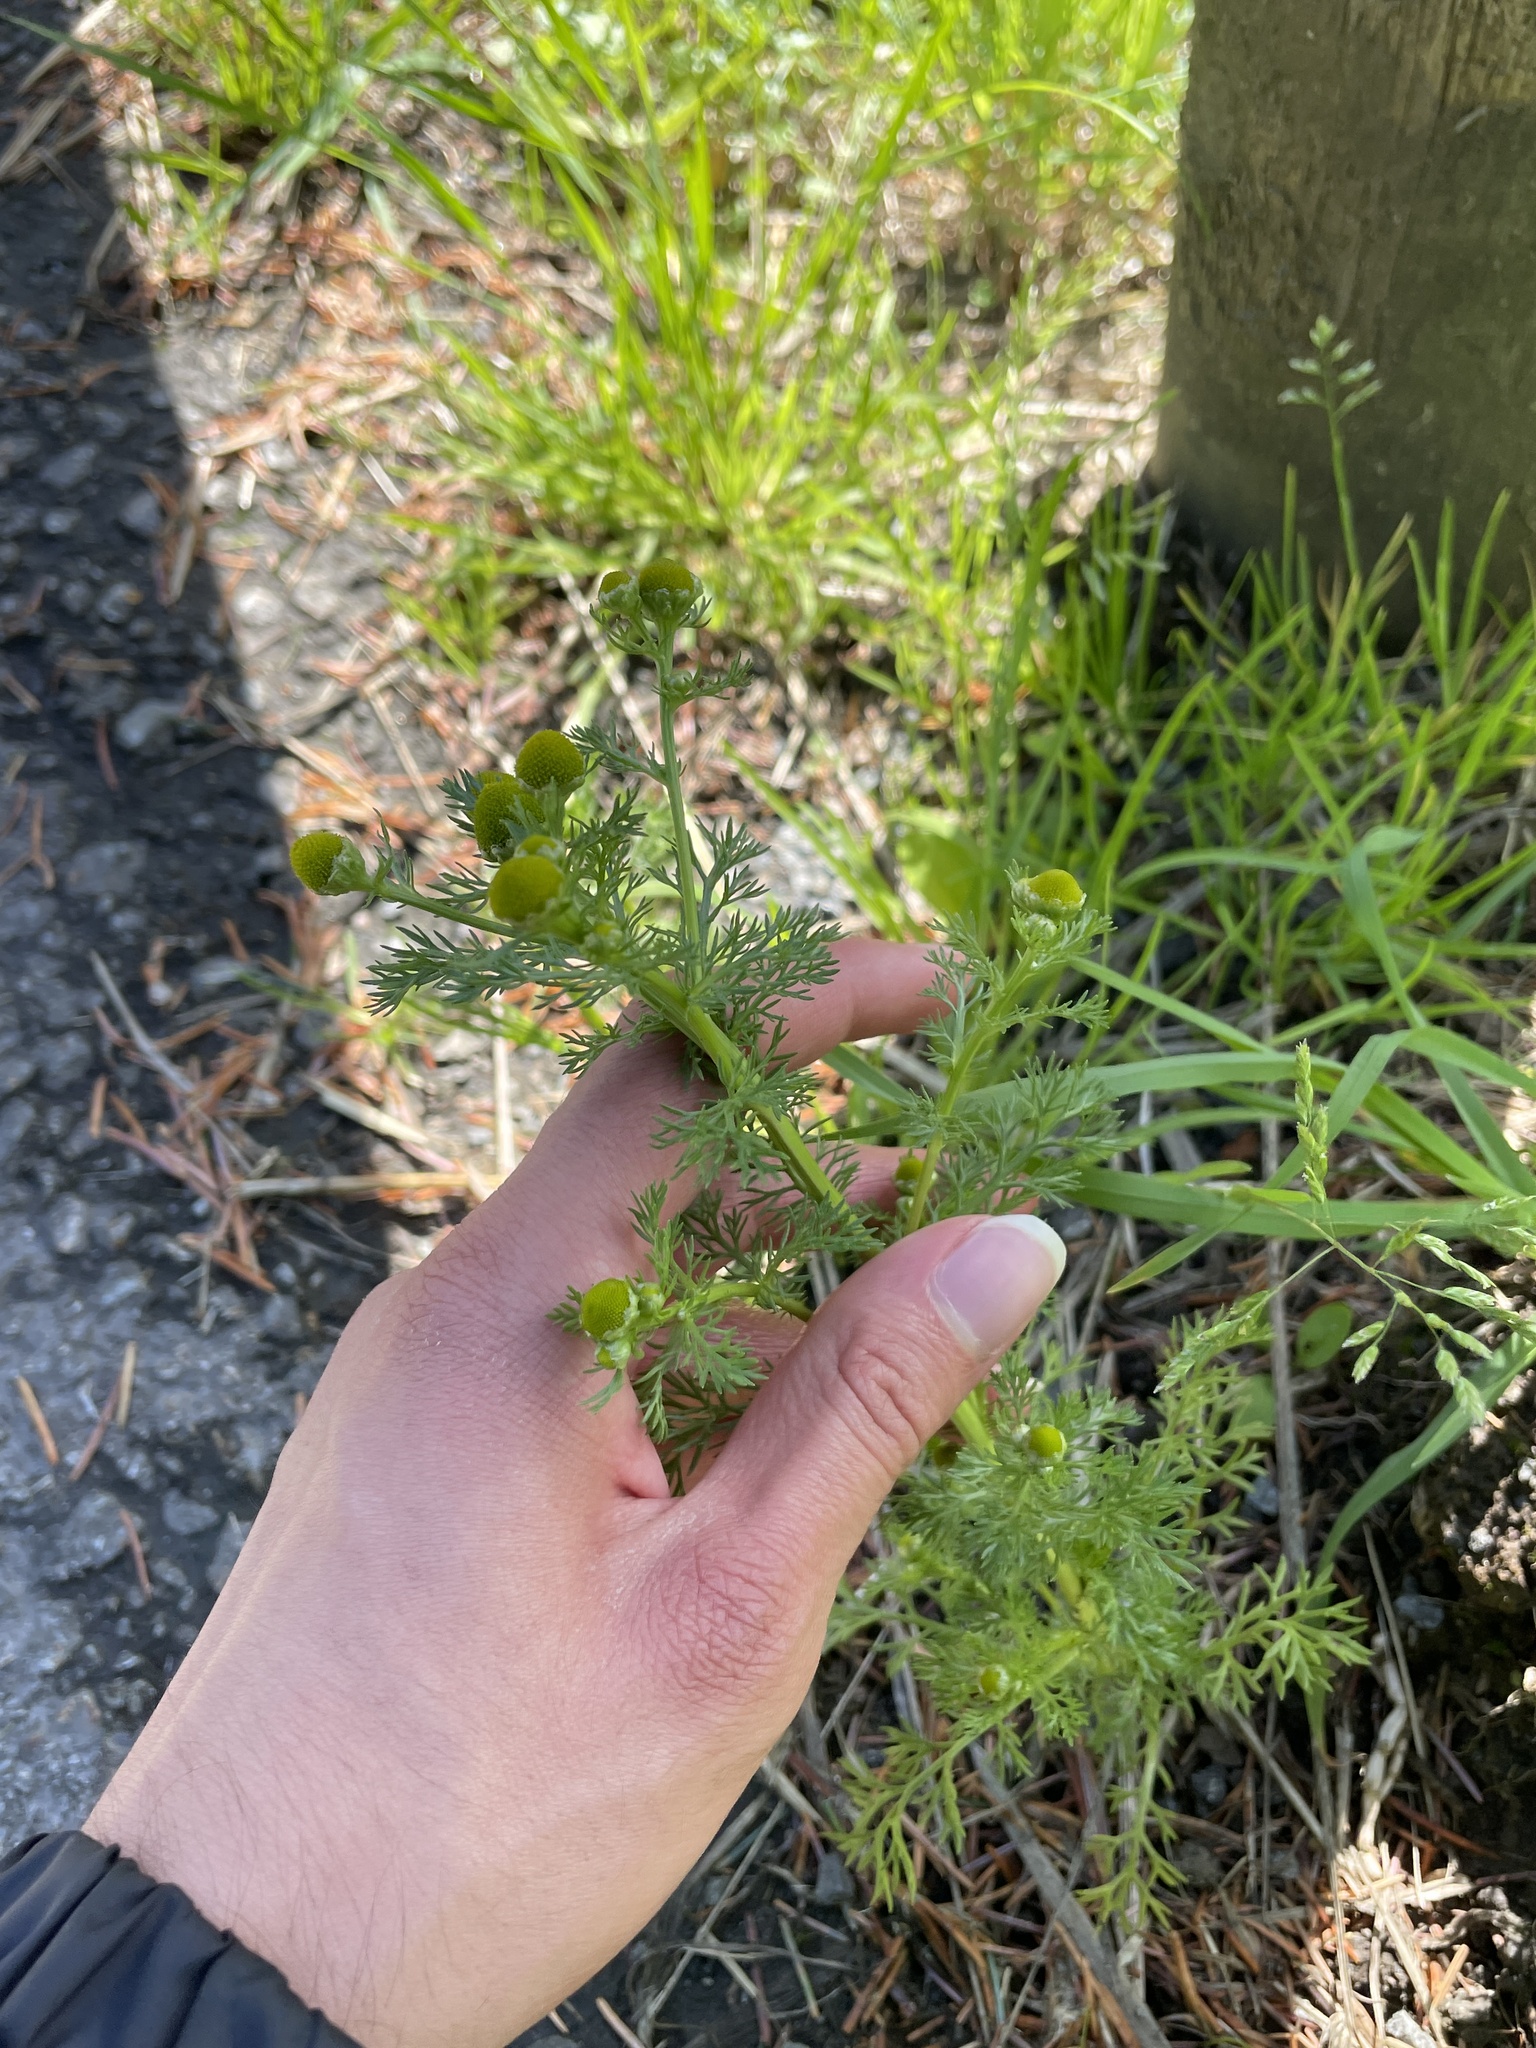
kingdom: Plantae
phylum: Tracheophyta
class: Magnoliopsida
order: Asterales
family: Asteraceae
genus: Matricaria
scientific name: Matricaria discoidea
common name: Disc mayweed
